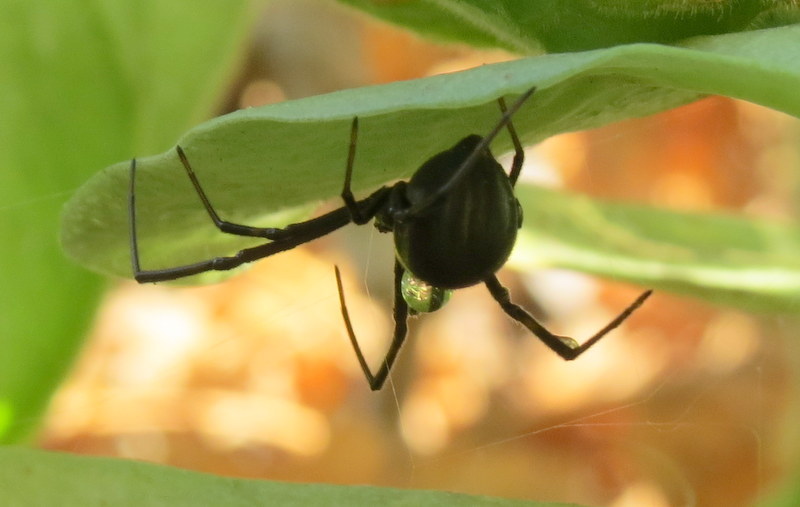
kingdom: Animalia
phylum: Arthropoda
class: Arachnida
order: Araneae
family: Theridiidae
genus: Latrodectus
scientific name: Latrodectus hesperus
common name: Western black widow
